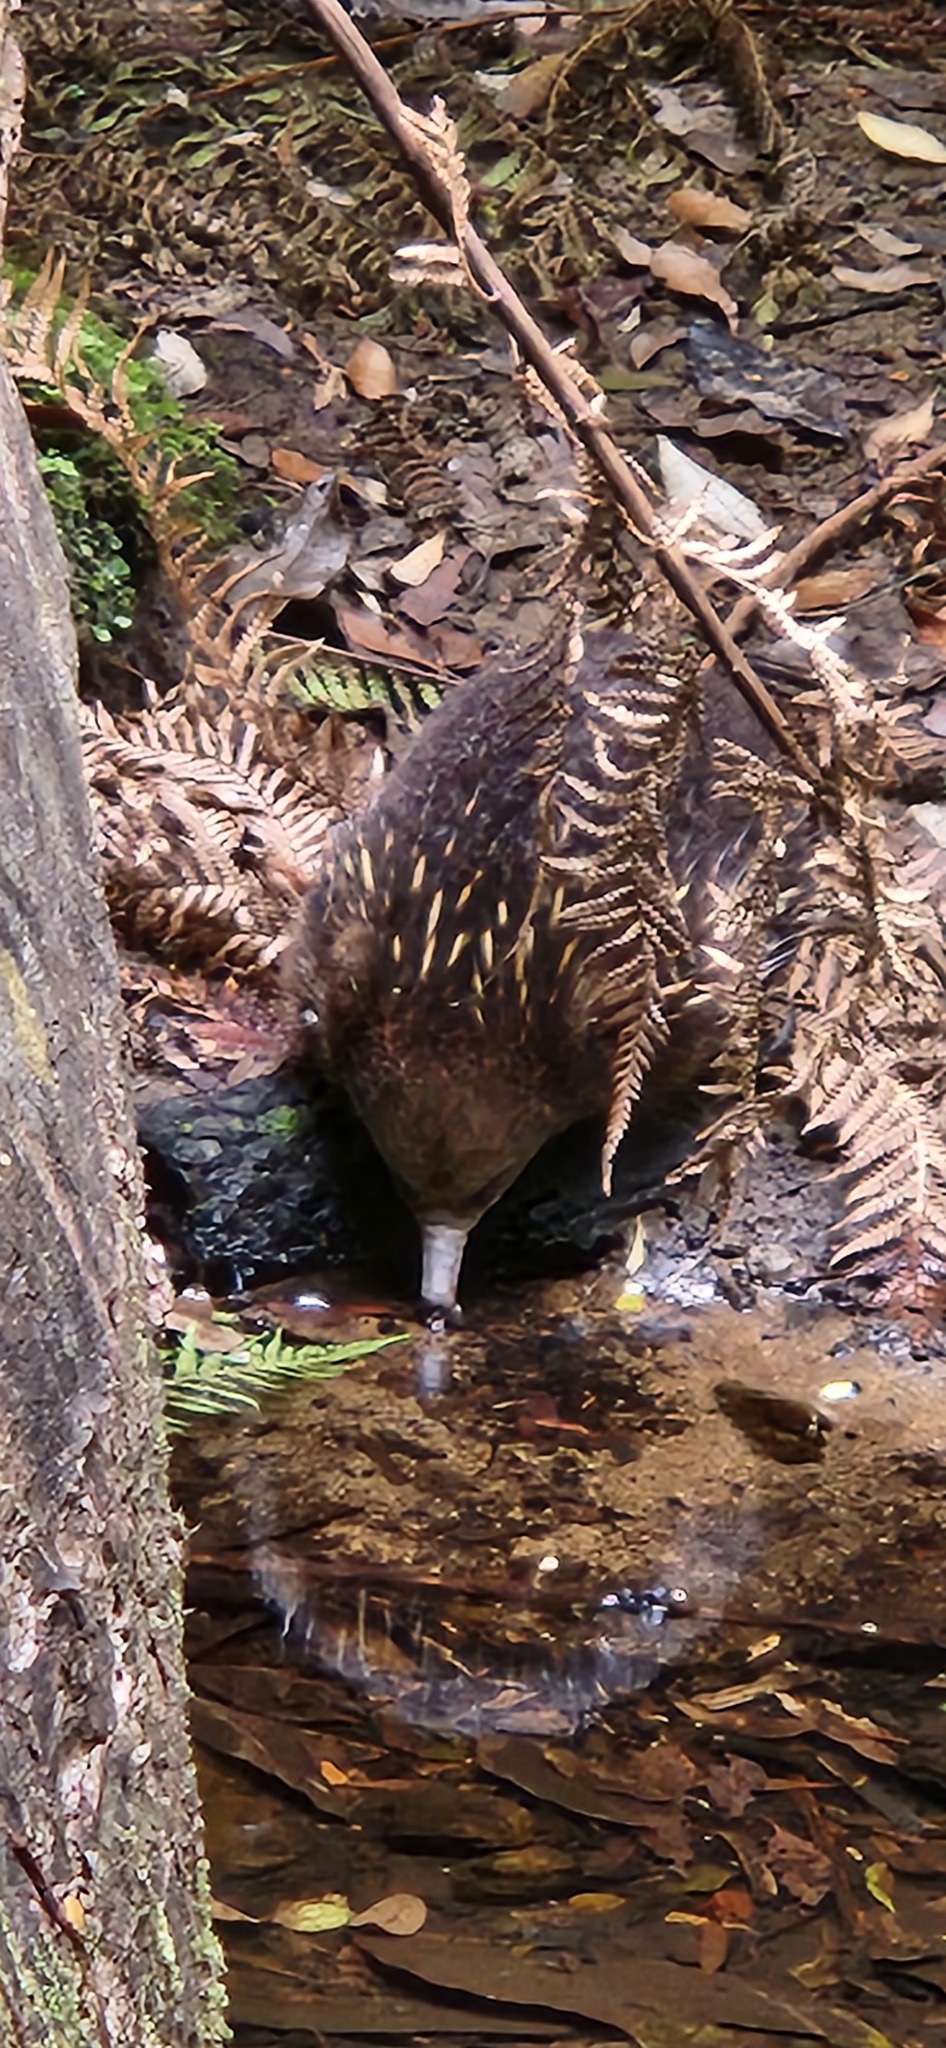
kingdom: Animalia
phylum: Chordata
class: Mammalia
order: Monotremata
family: Tachyglossidae
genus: Tachyglossus
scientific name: Tachyglossus aculeatus
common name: Short-beaked echidna
